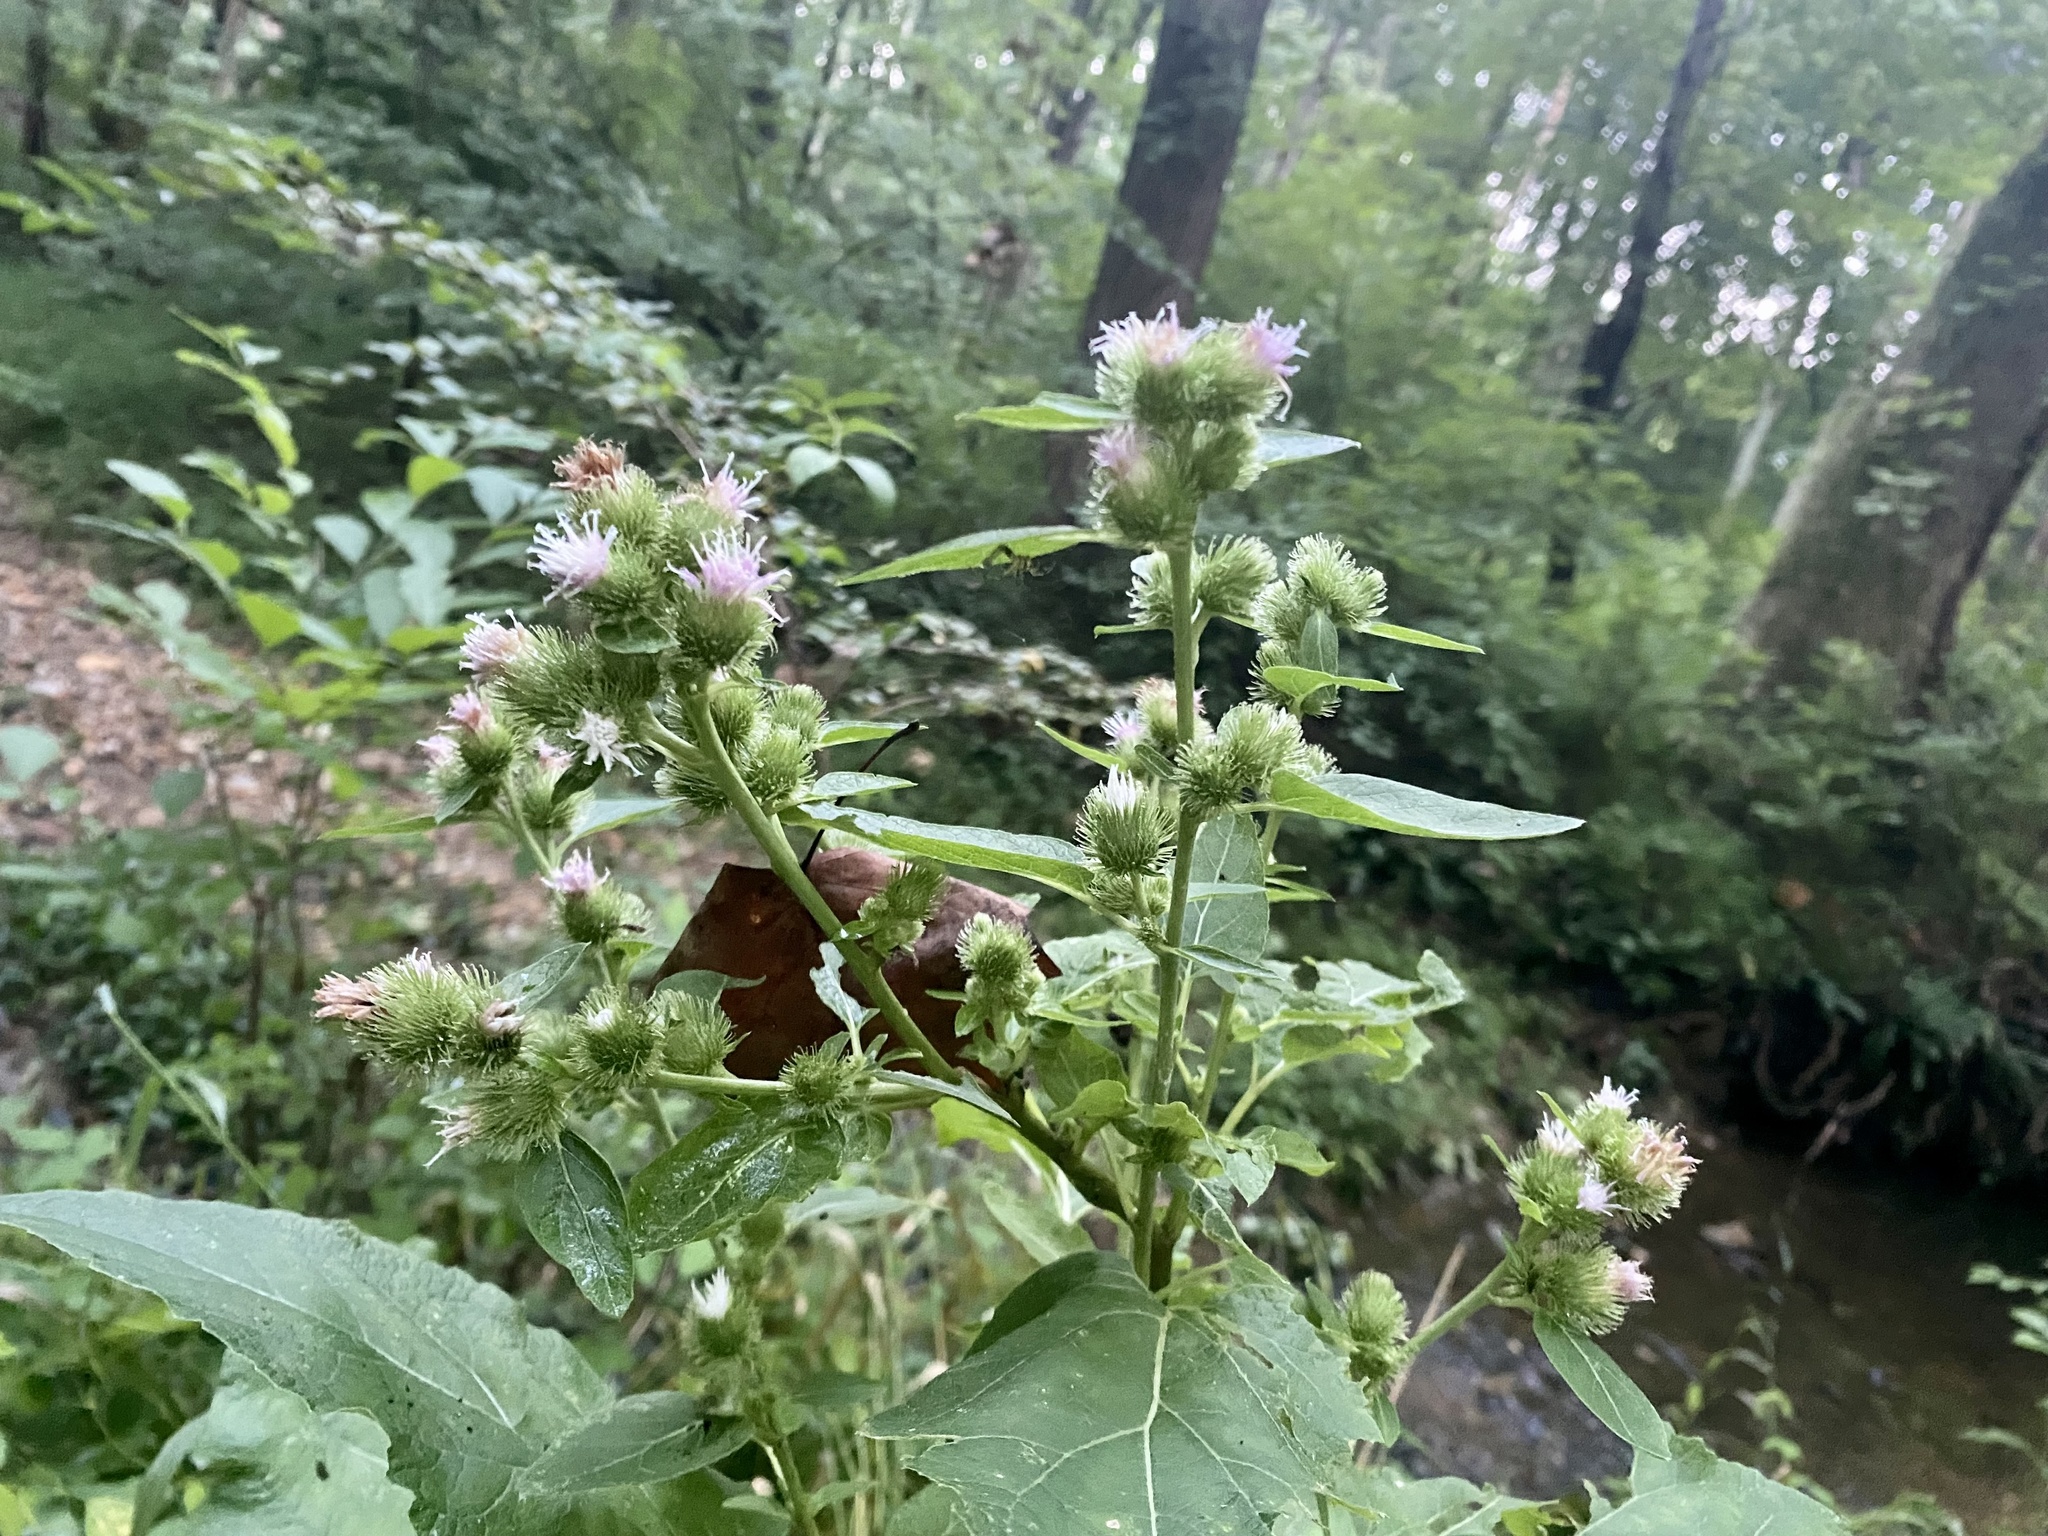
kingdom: Plantae
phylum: Tracheophyta
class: Magnoliopsida
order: Asterales
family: Asteraceae
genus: Arctium
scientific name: Arctium minus
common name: Lesser burdock
